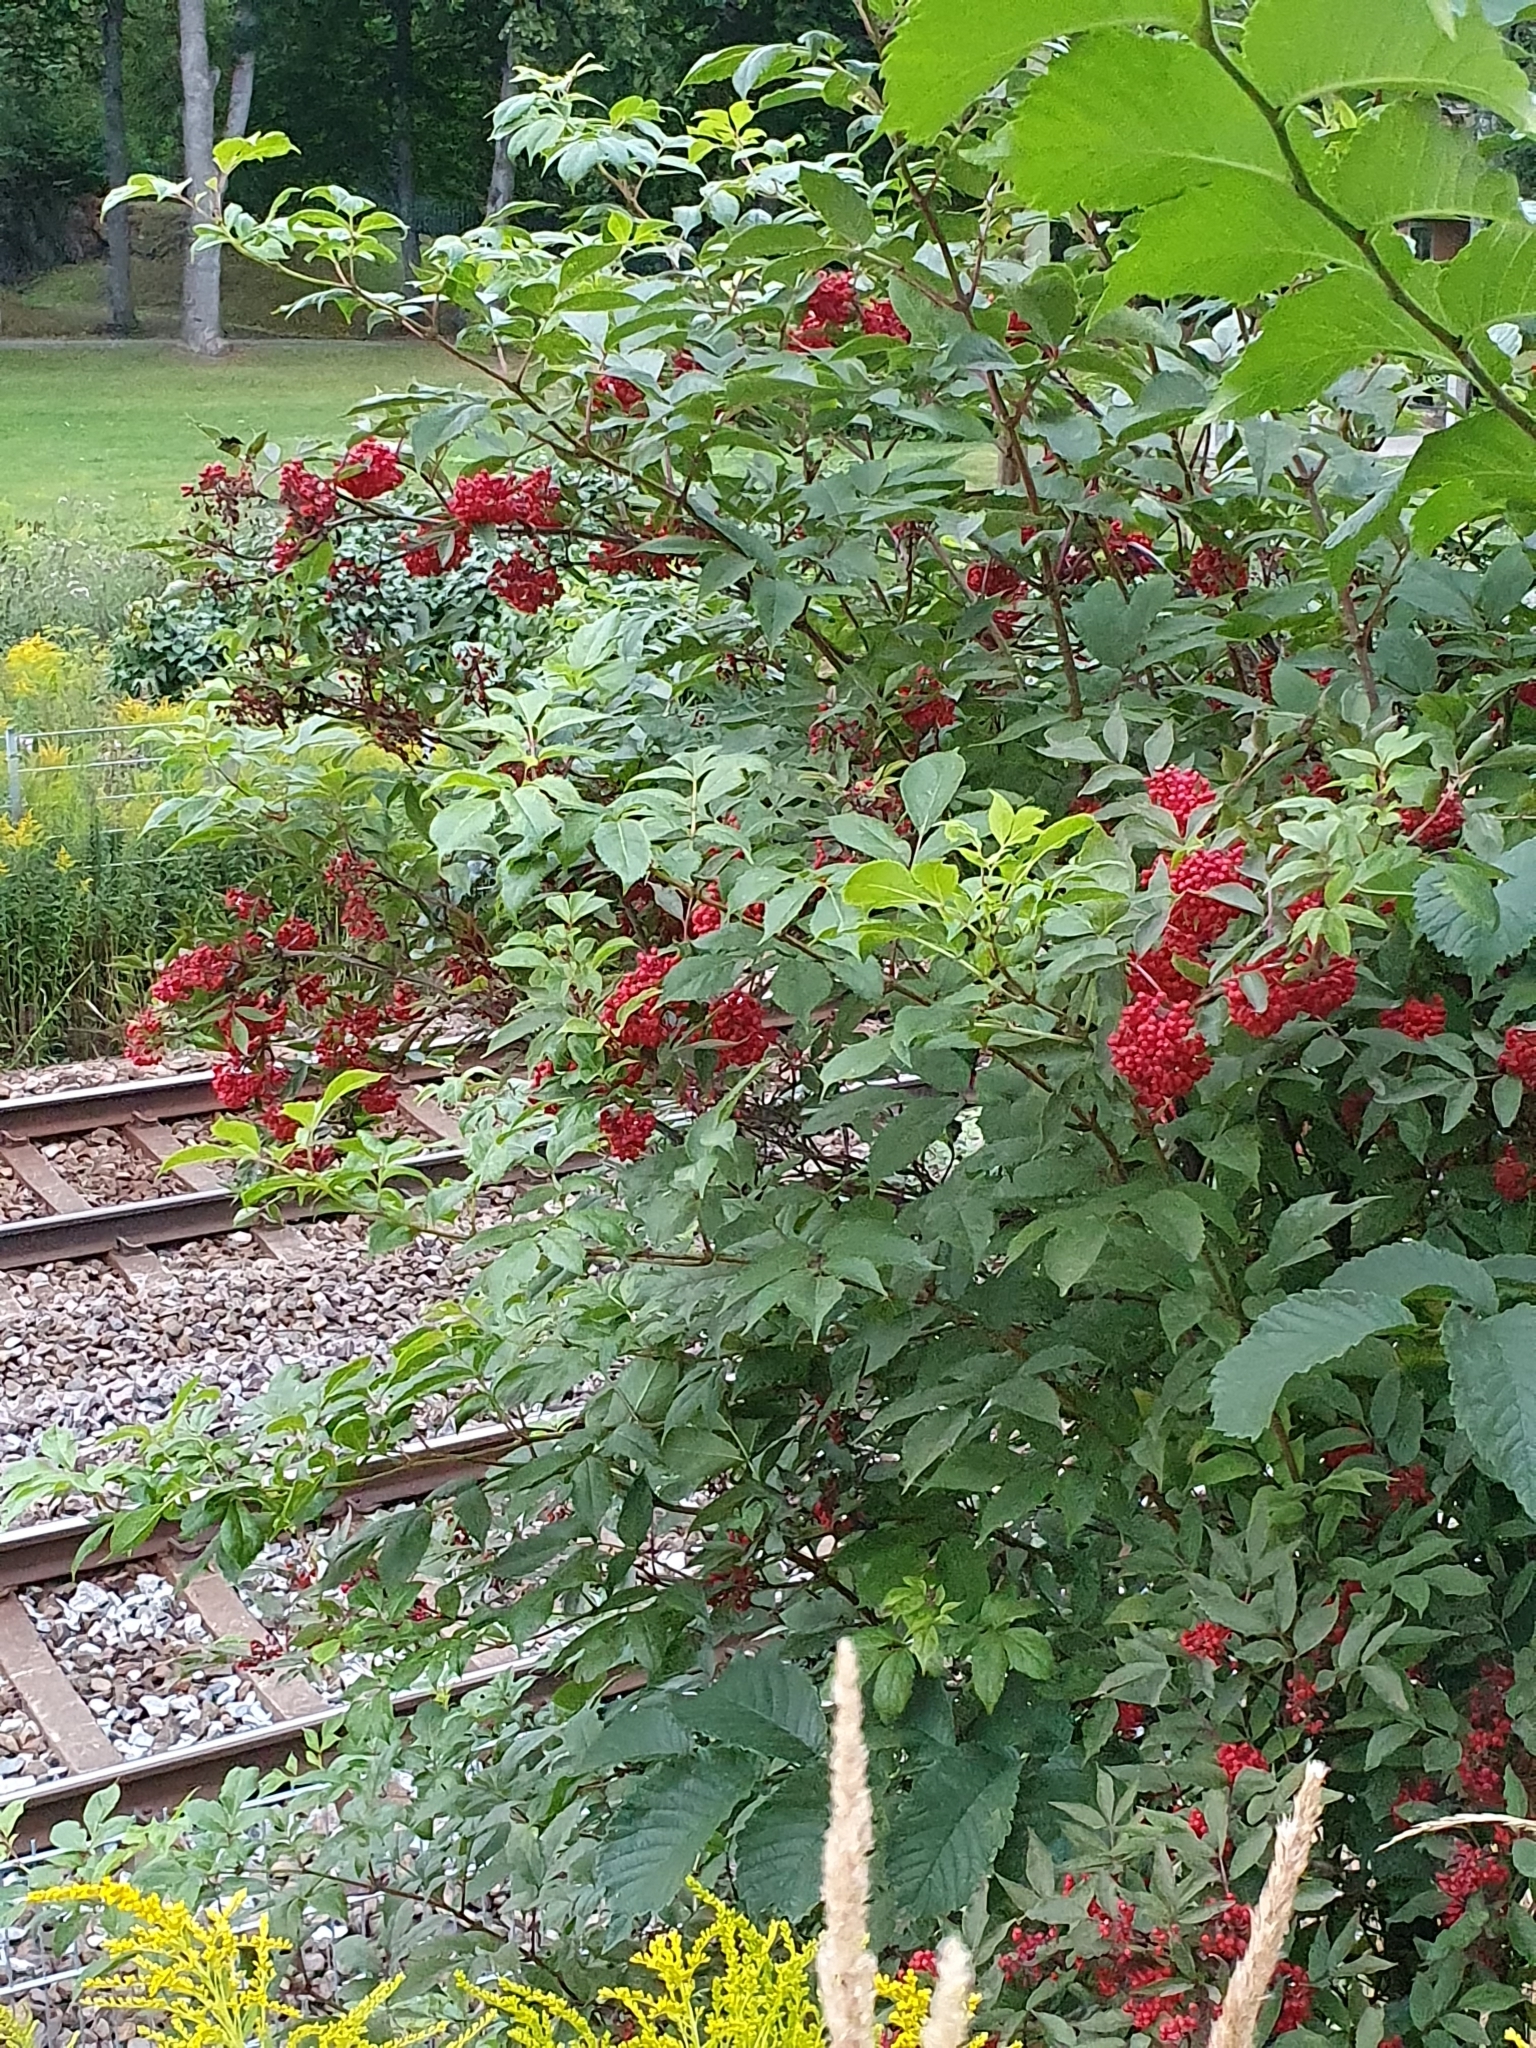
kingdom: Plantae
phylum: Tracheophyta
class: Magnoliopsida
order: Dipsacales
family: Viburnaceae
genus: Sambucus
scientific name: Sambucus racemosa
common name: Red-berried elder
